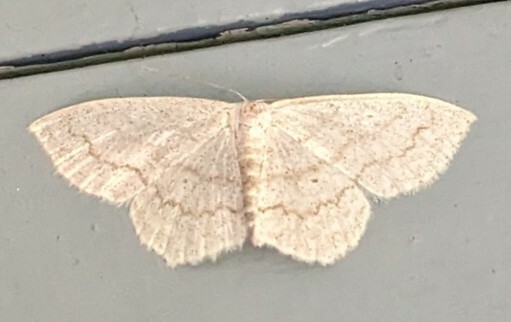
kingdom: Animalia
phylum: Arthropoda
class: Insecta
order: Lepidoptera
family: Geometridae
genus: Scopula
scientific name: Scopula junctaria
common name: Simple wave
